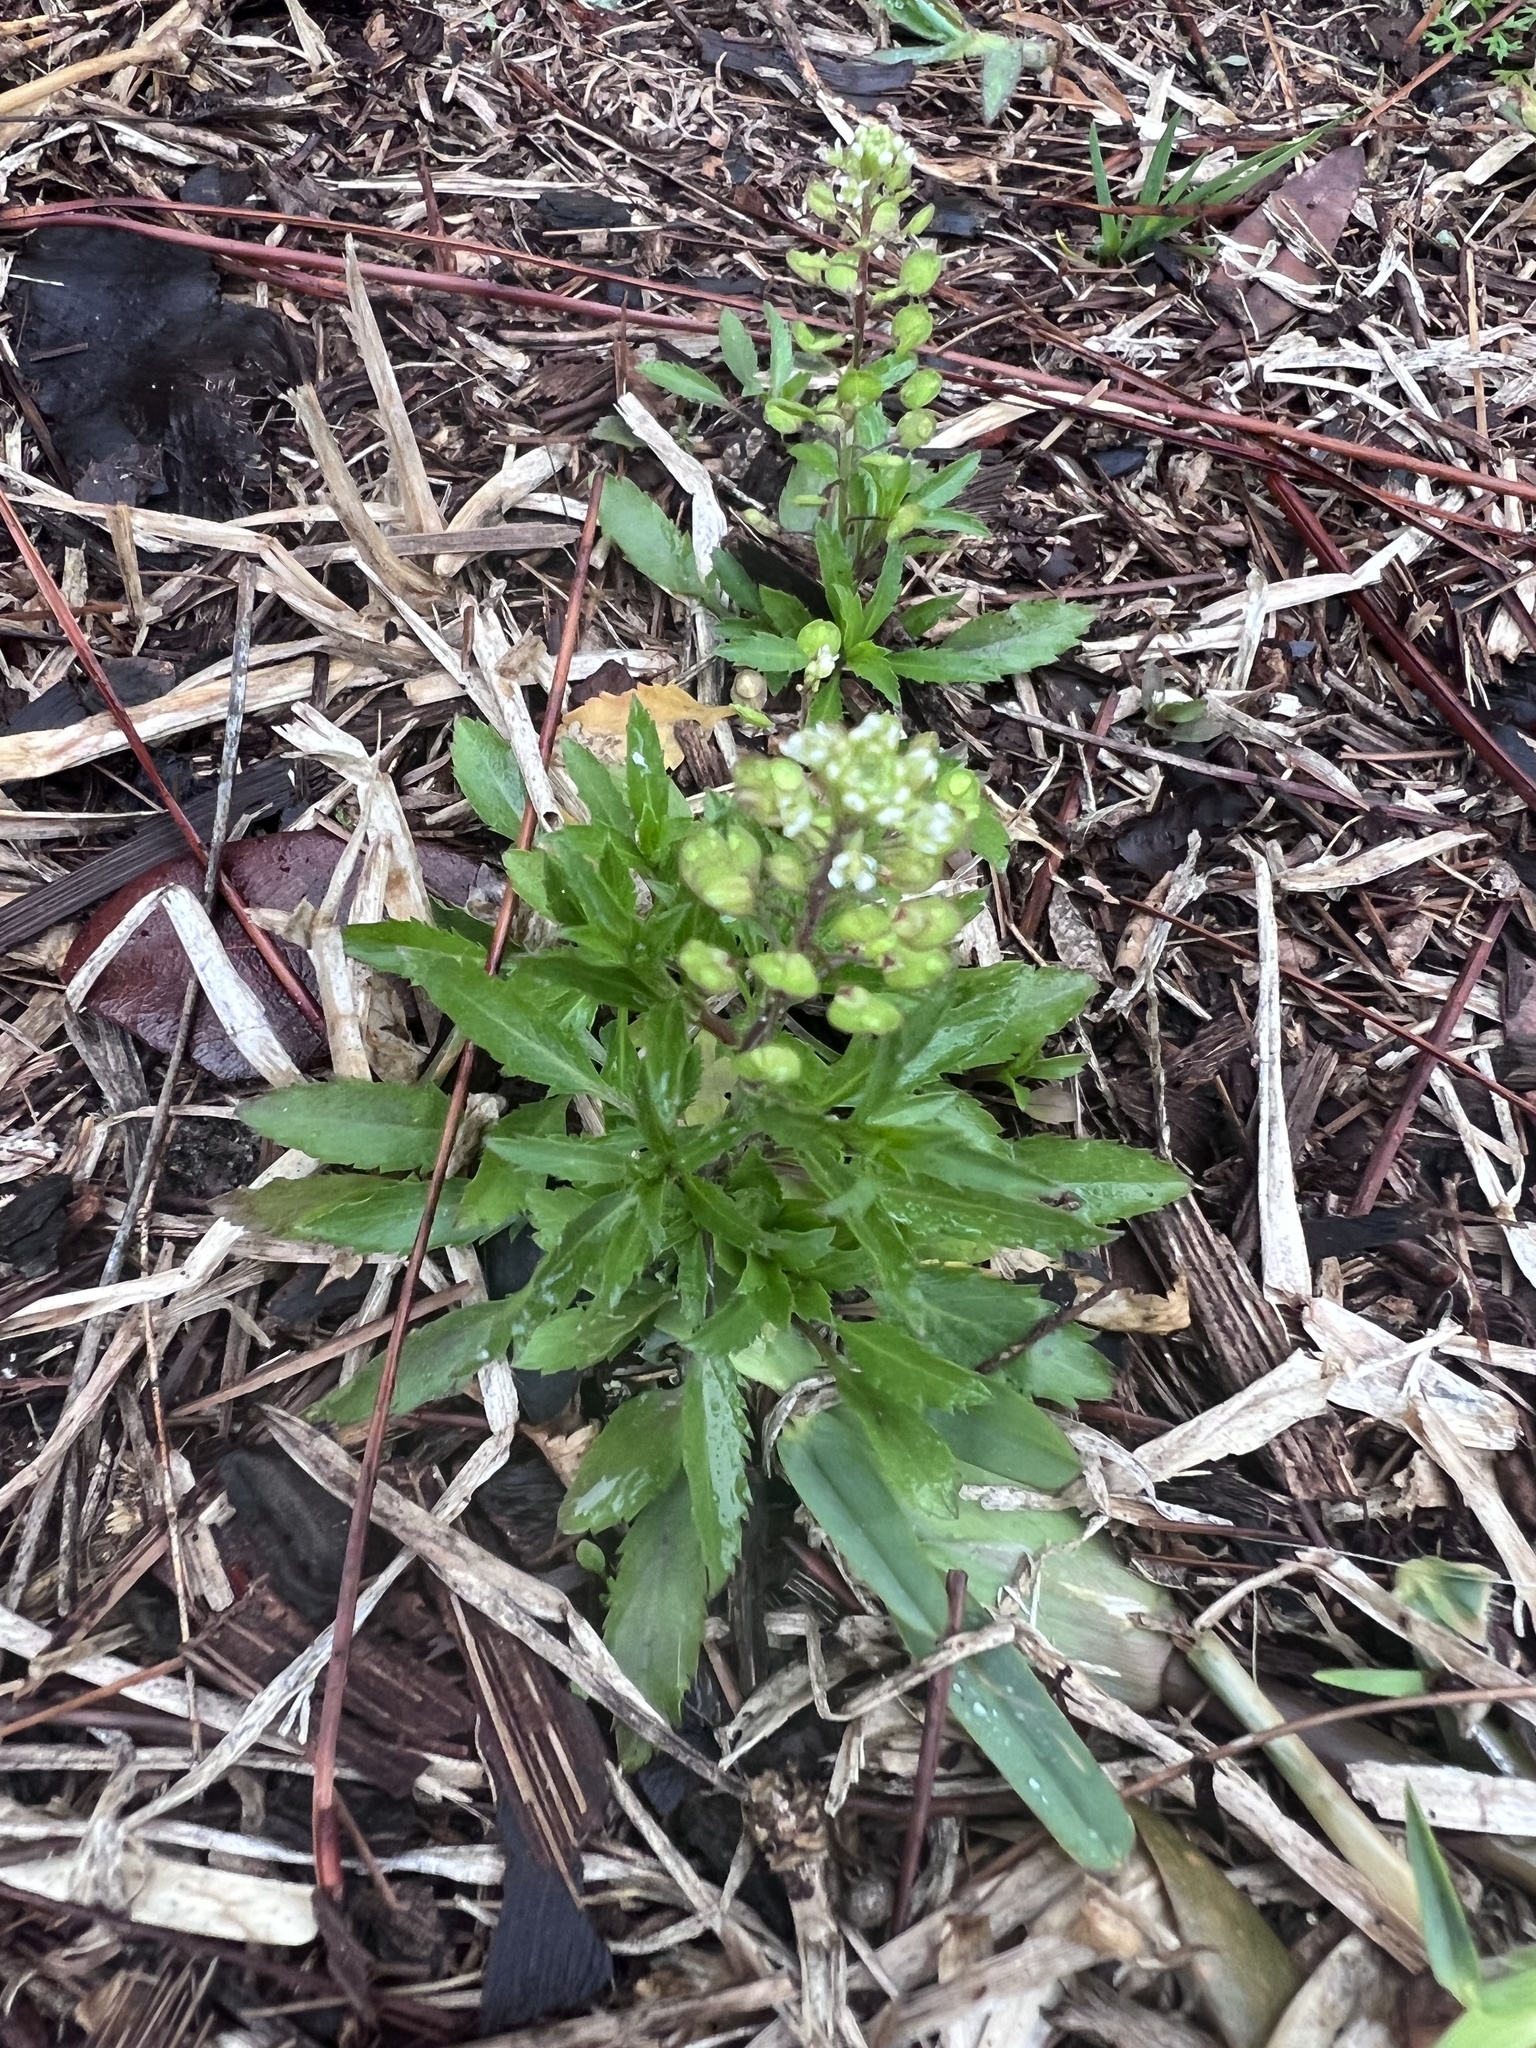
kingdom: Plantae
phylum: Tracheophyta
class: Magnoliopsida
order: Brassicales
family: Brassicaceae
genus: Lepidium
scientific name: Lepidium virginicum
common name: Least pepperwort
